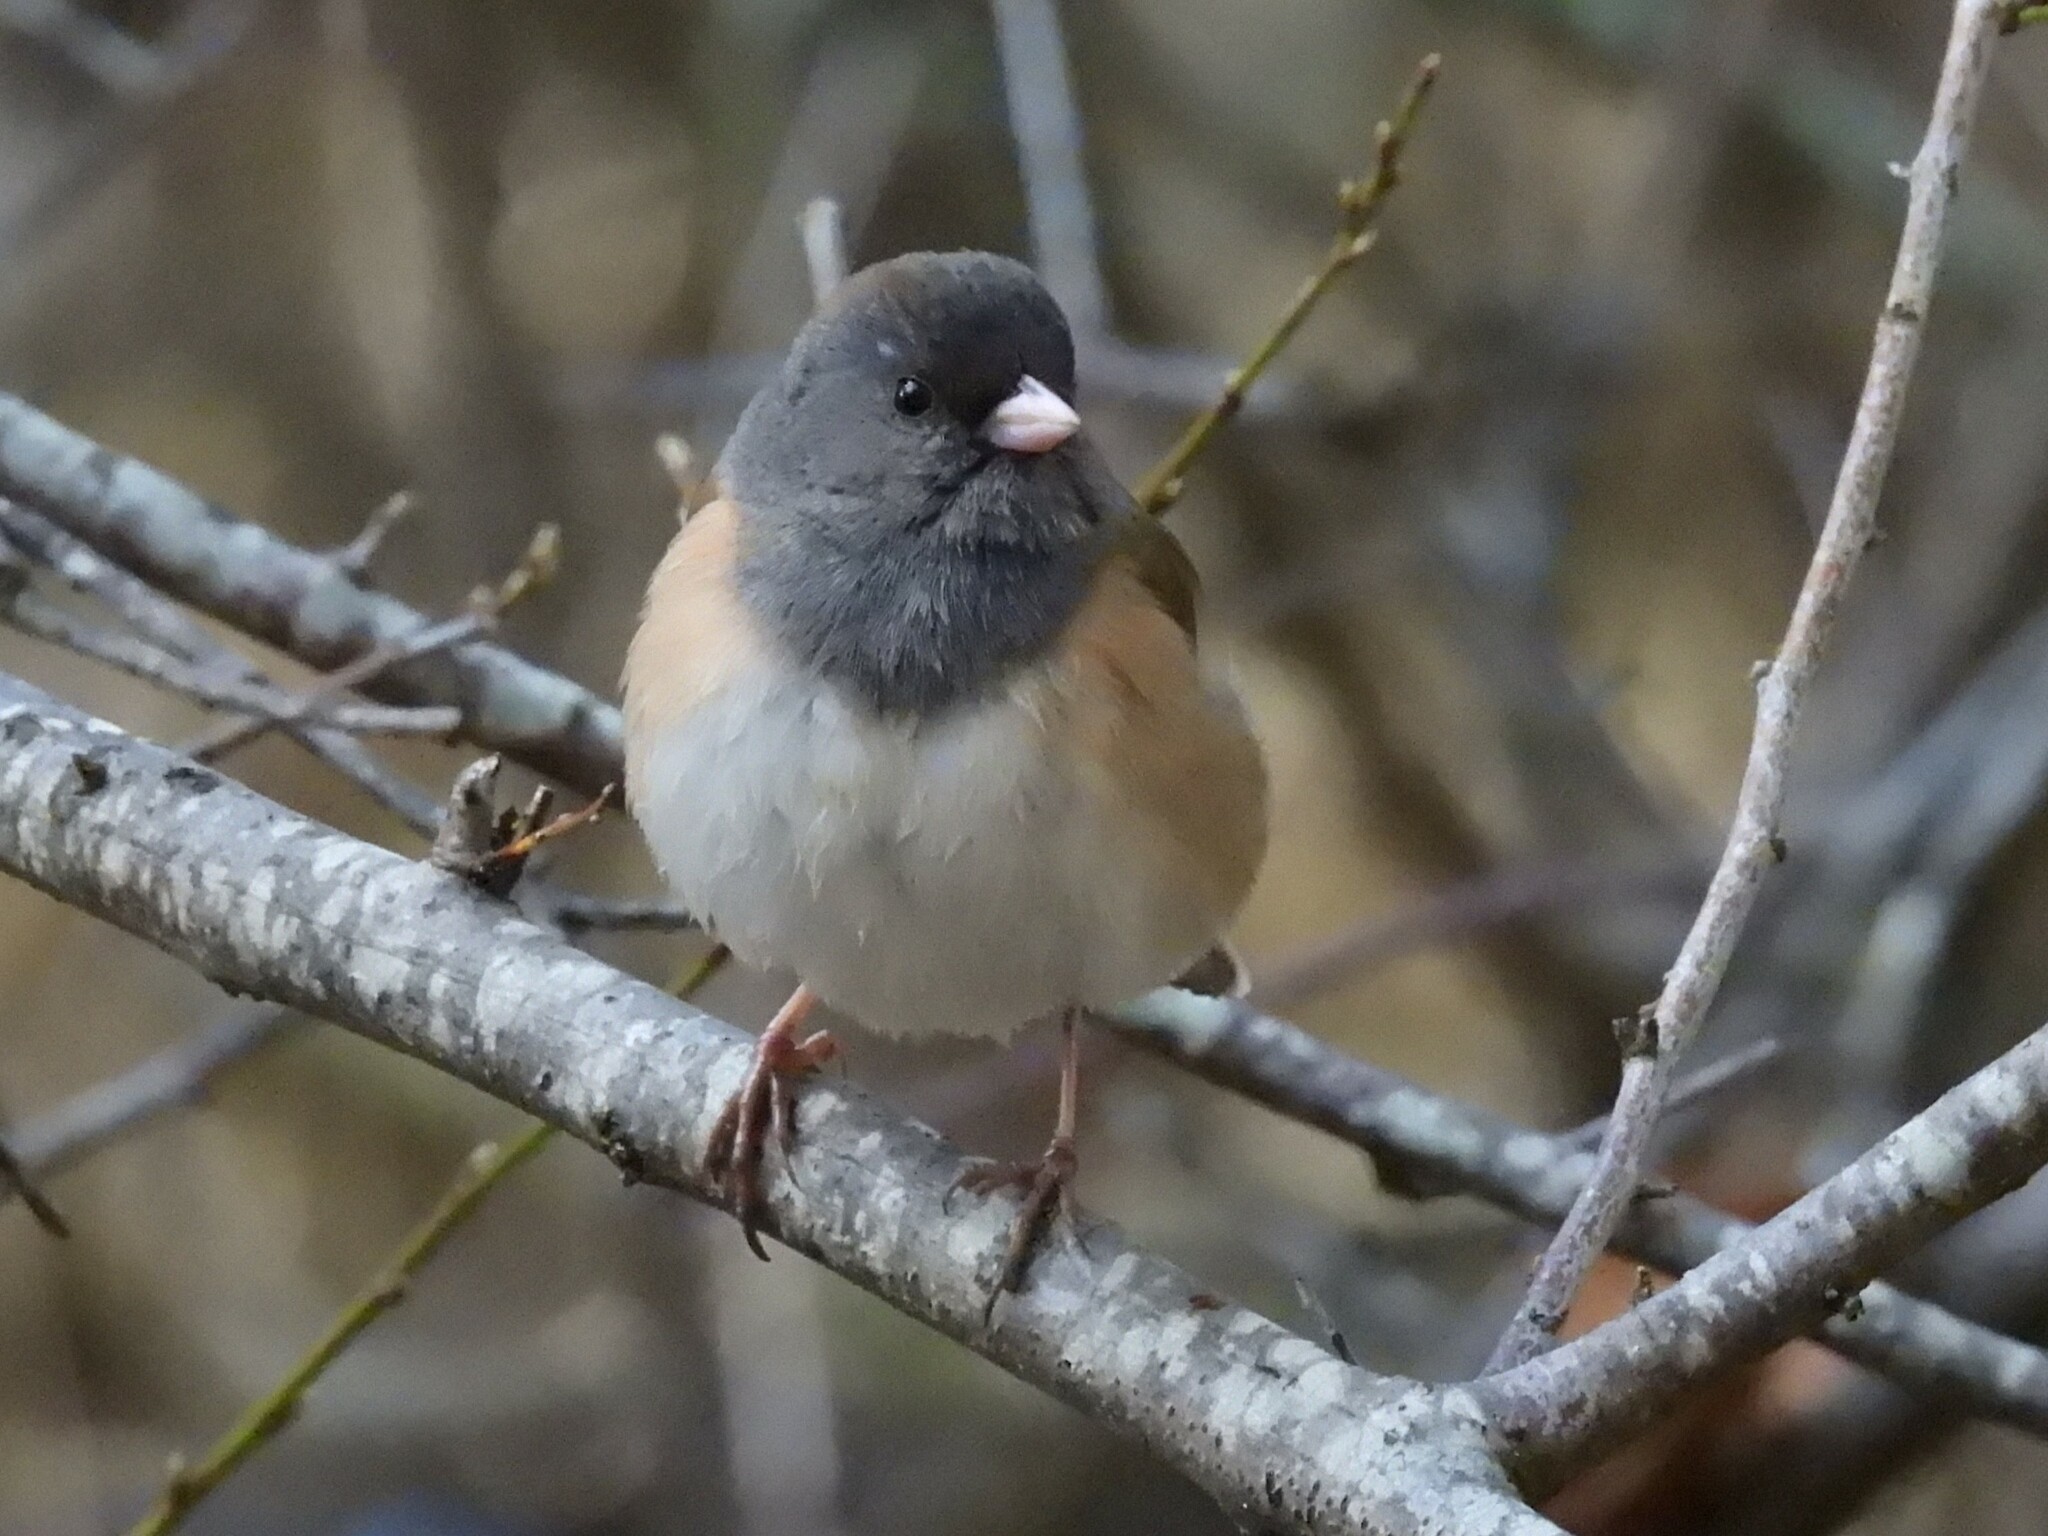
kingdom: Animalia
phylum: Chordata
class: Aves
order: Passeriformes
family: Passerellidae
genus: Junco
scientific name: Junco hyemalis
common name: Dark-eyed junco
